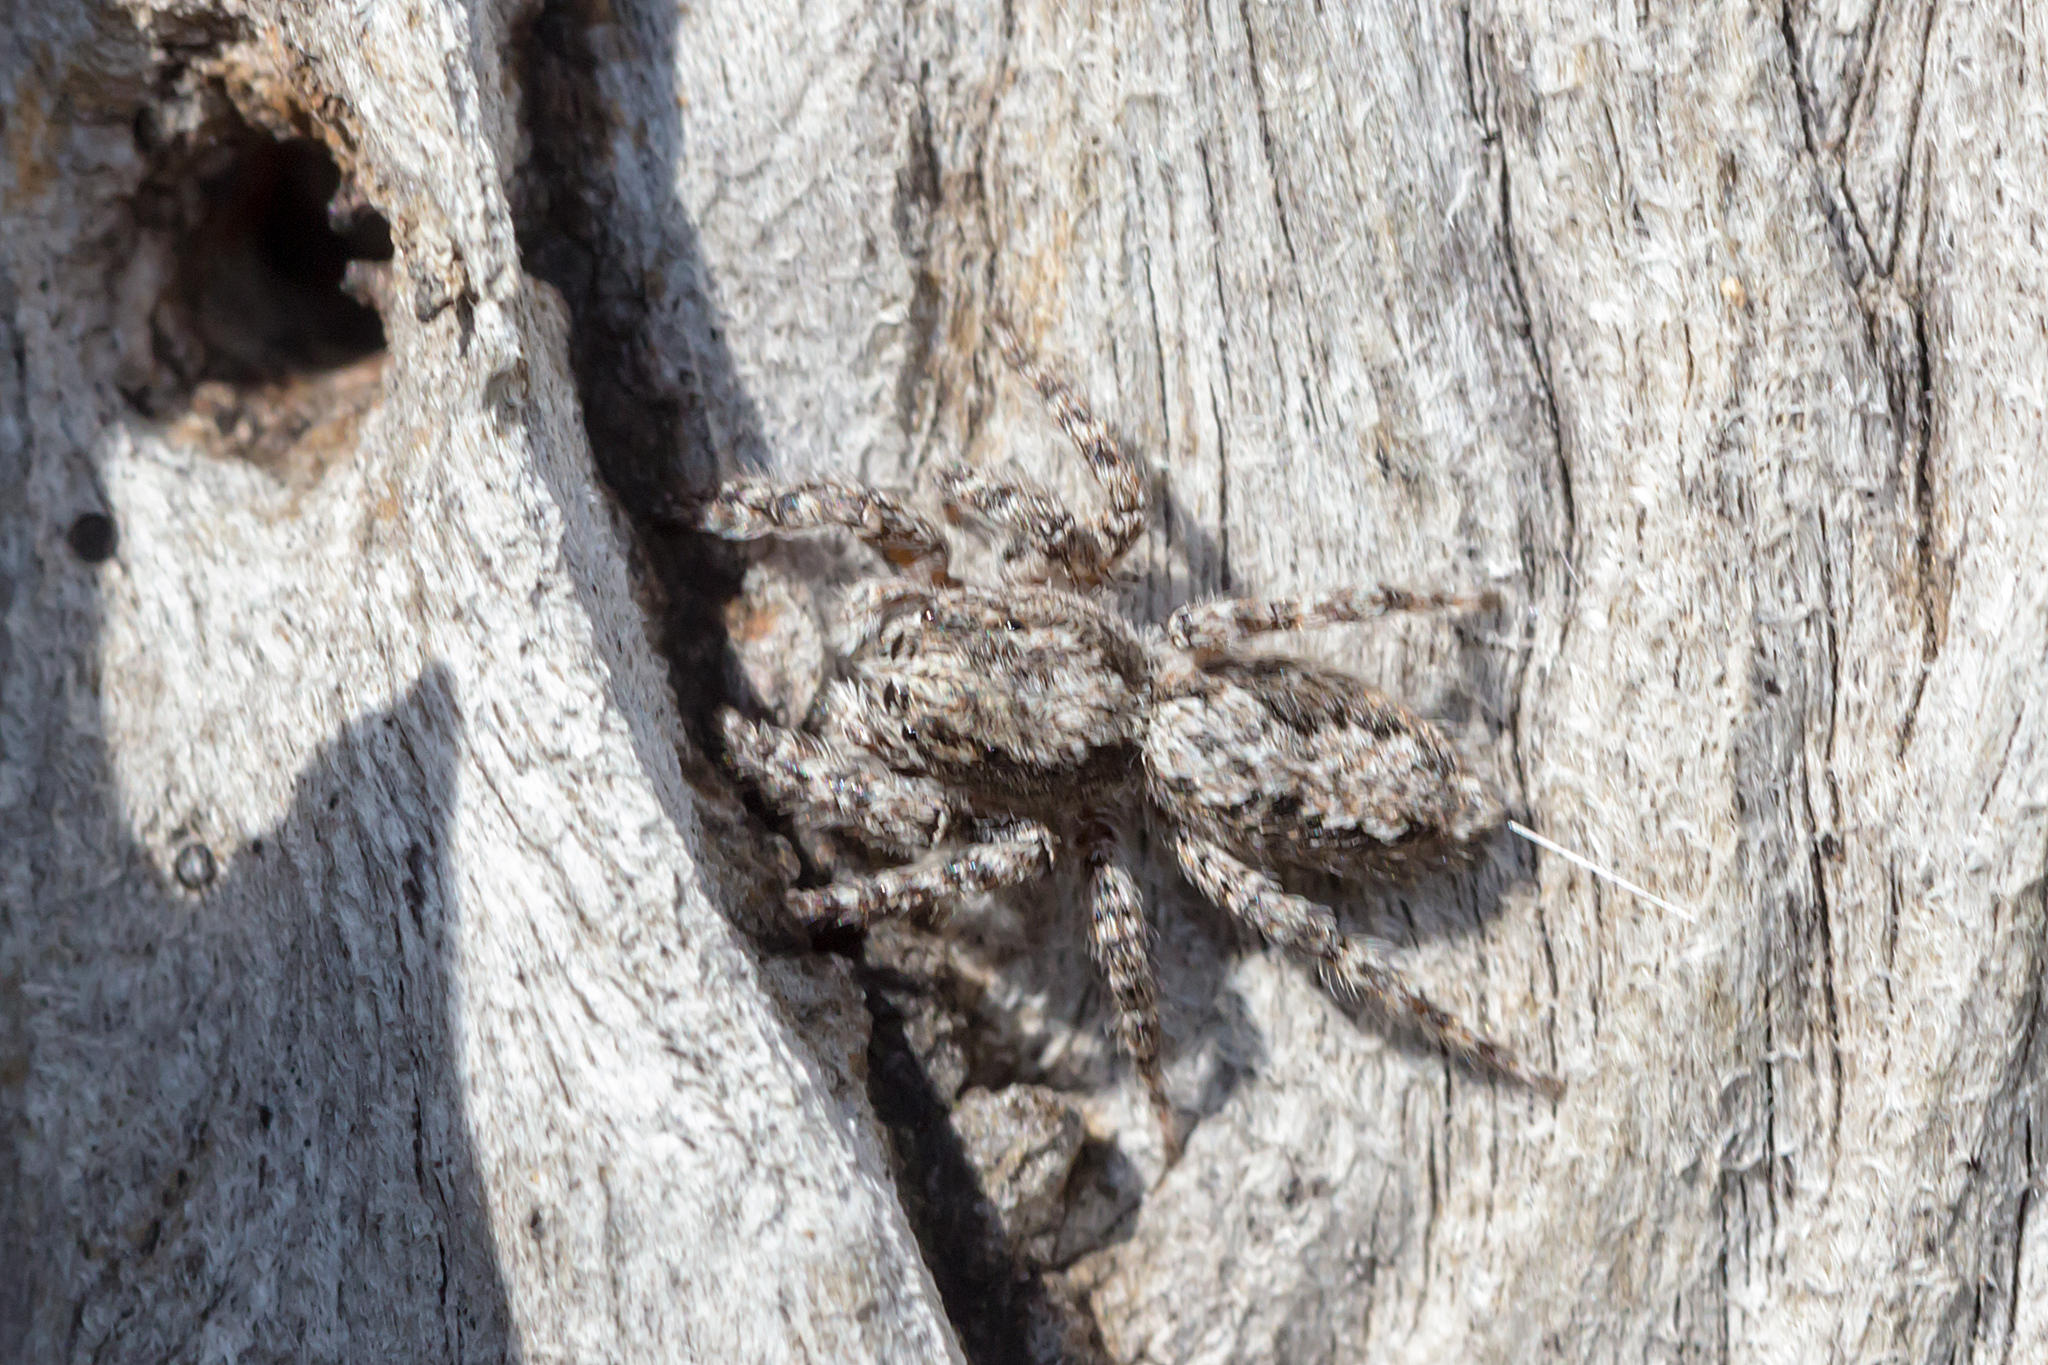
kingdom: Animalia
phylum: Arthropoda
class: Arachnida
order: Araneae
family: Salticidae
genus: Clynotis
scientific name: Clynotis severus
